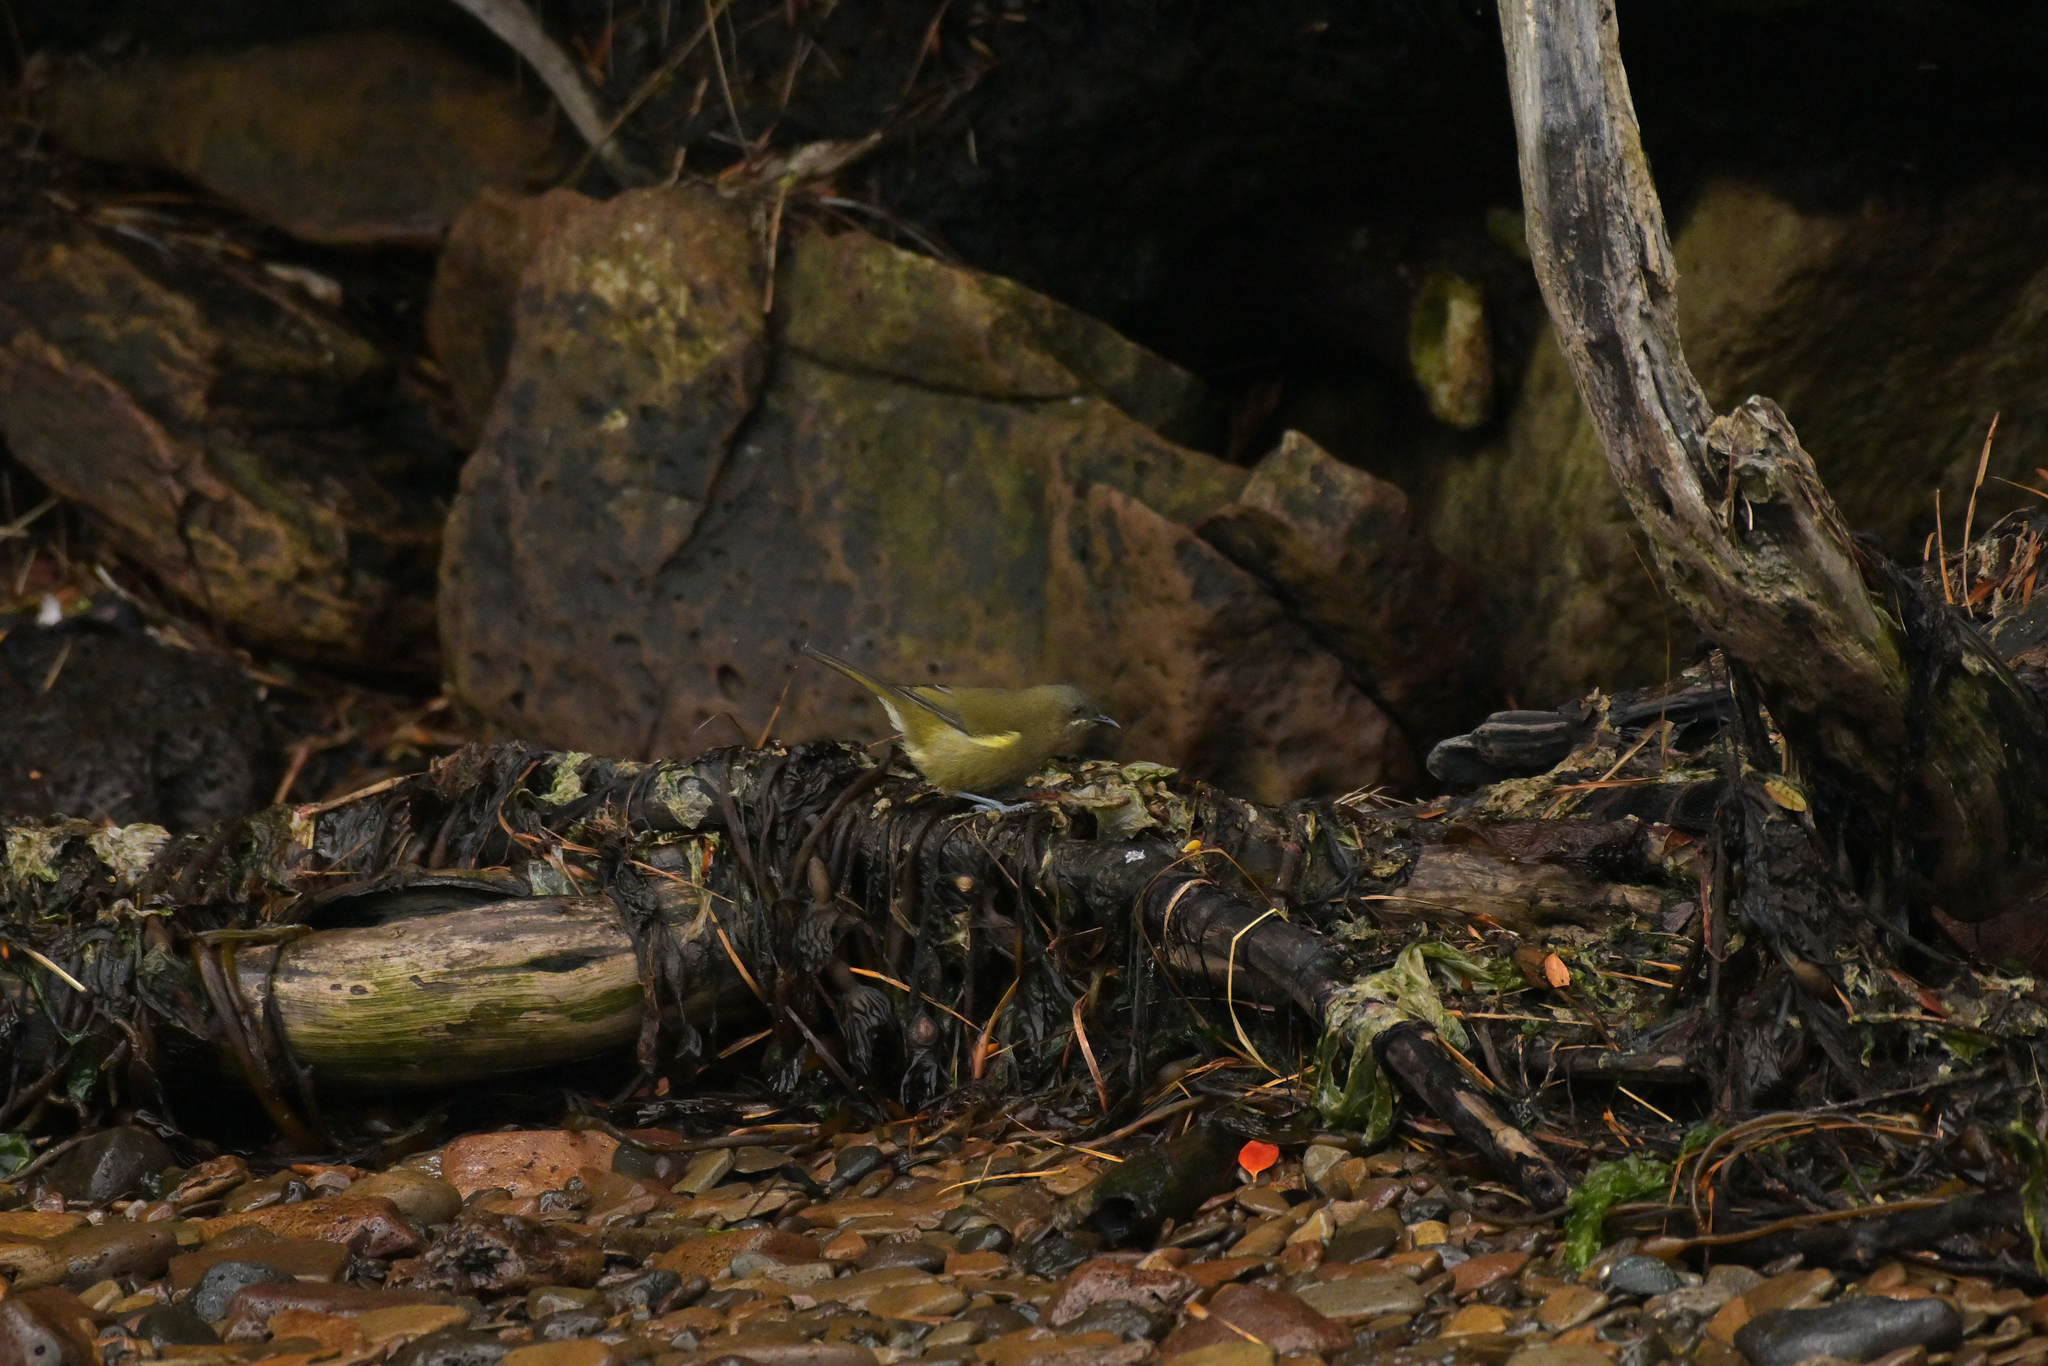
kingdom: Animalia
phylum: Chordata
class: Aves
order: Passeriformes
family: Meliphagidae
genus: Anthornis
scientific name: Anthornis melanura
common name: New zealand bellbird
